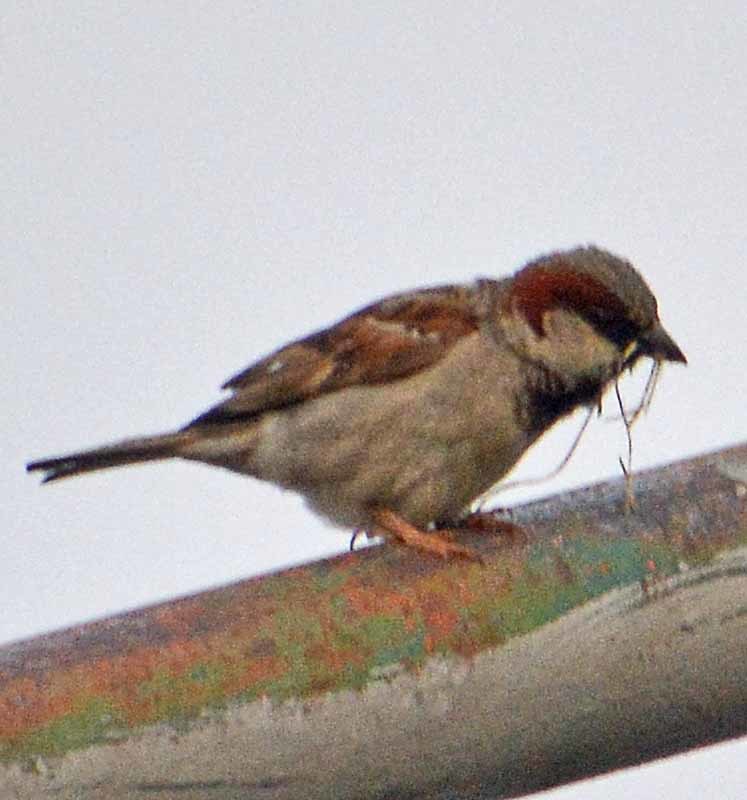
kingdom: Animalia
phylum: Chordata
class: Aves
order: Passeriformes
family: Passeridae
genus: Passer
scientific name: Passer domesticus
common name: House sparrow
